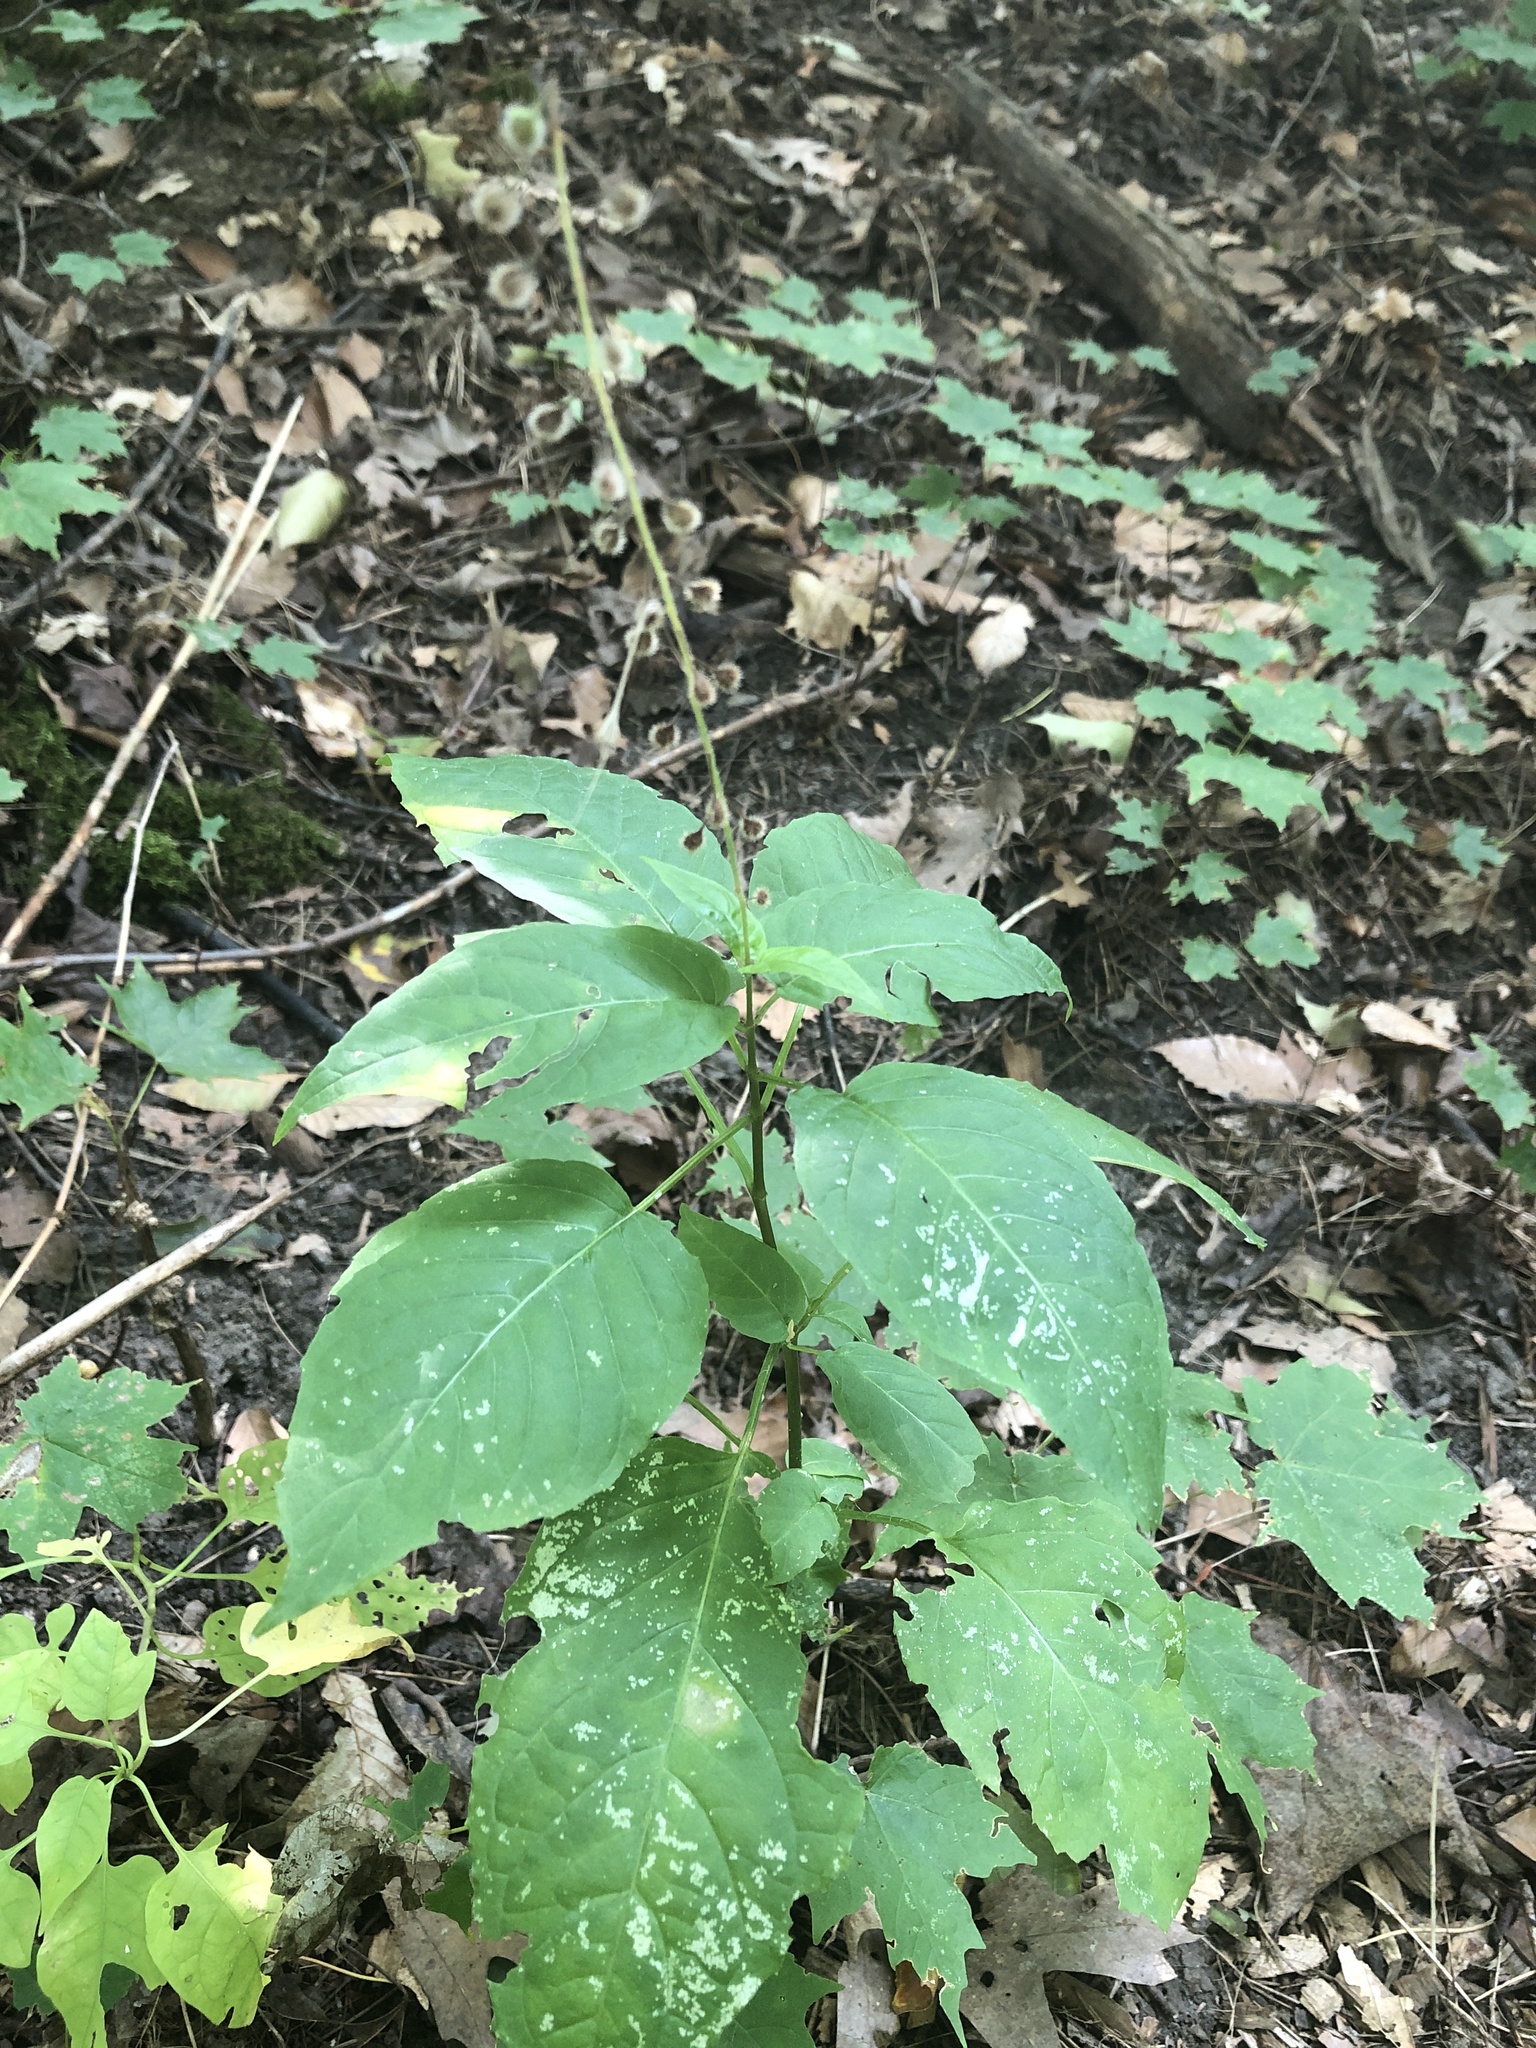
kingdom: Plantae
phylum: Tracheophyta
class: Magnoliopsida
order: Myrtales
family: Onagraceae
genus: Circaea
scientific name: Circaea canadensis
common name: Broad-leaved enchanter's nightshade
